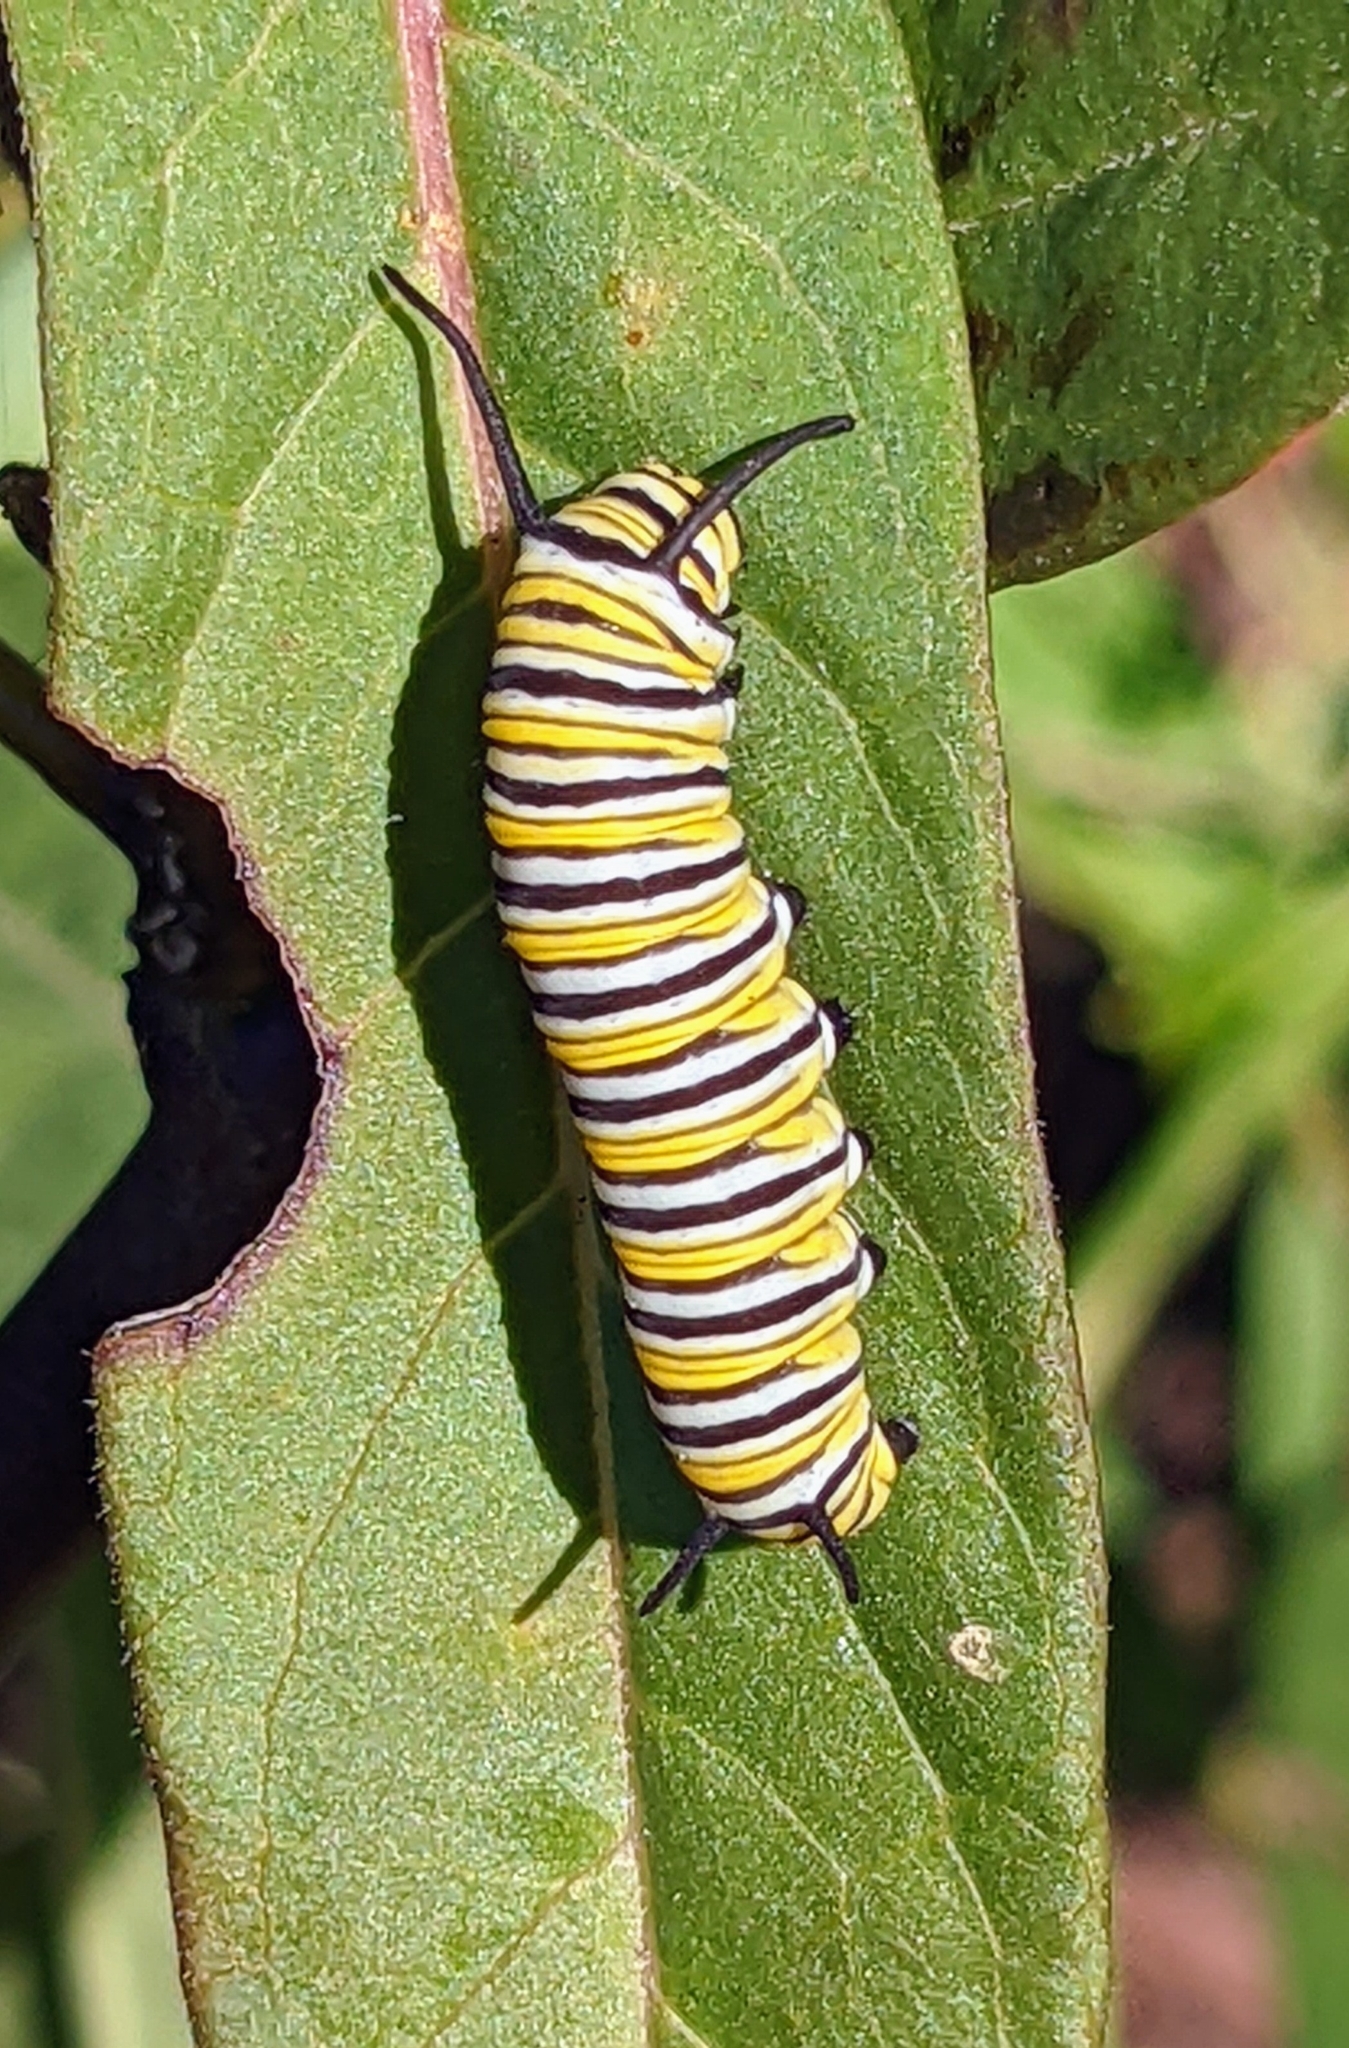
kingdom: Animalia
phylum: Arthropoda
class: Insecta
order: Lepidoptera
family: Nymphalidae
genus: Danaus
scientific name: Danaus plexippus
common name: Monarch
